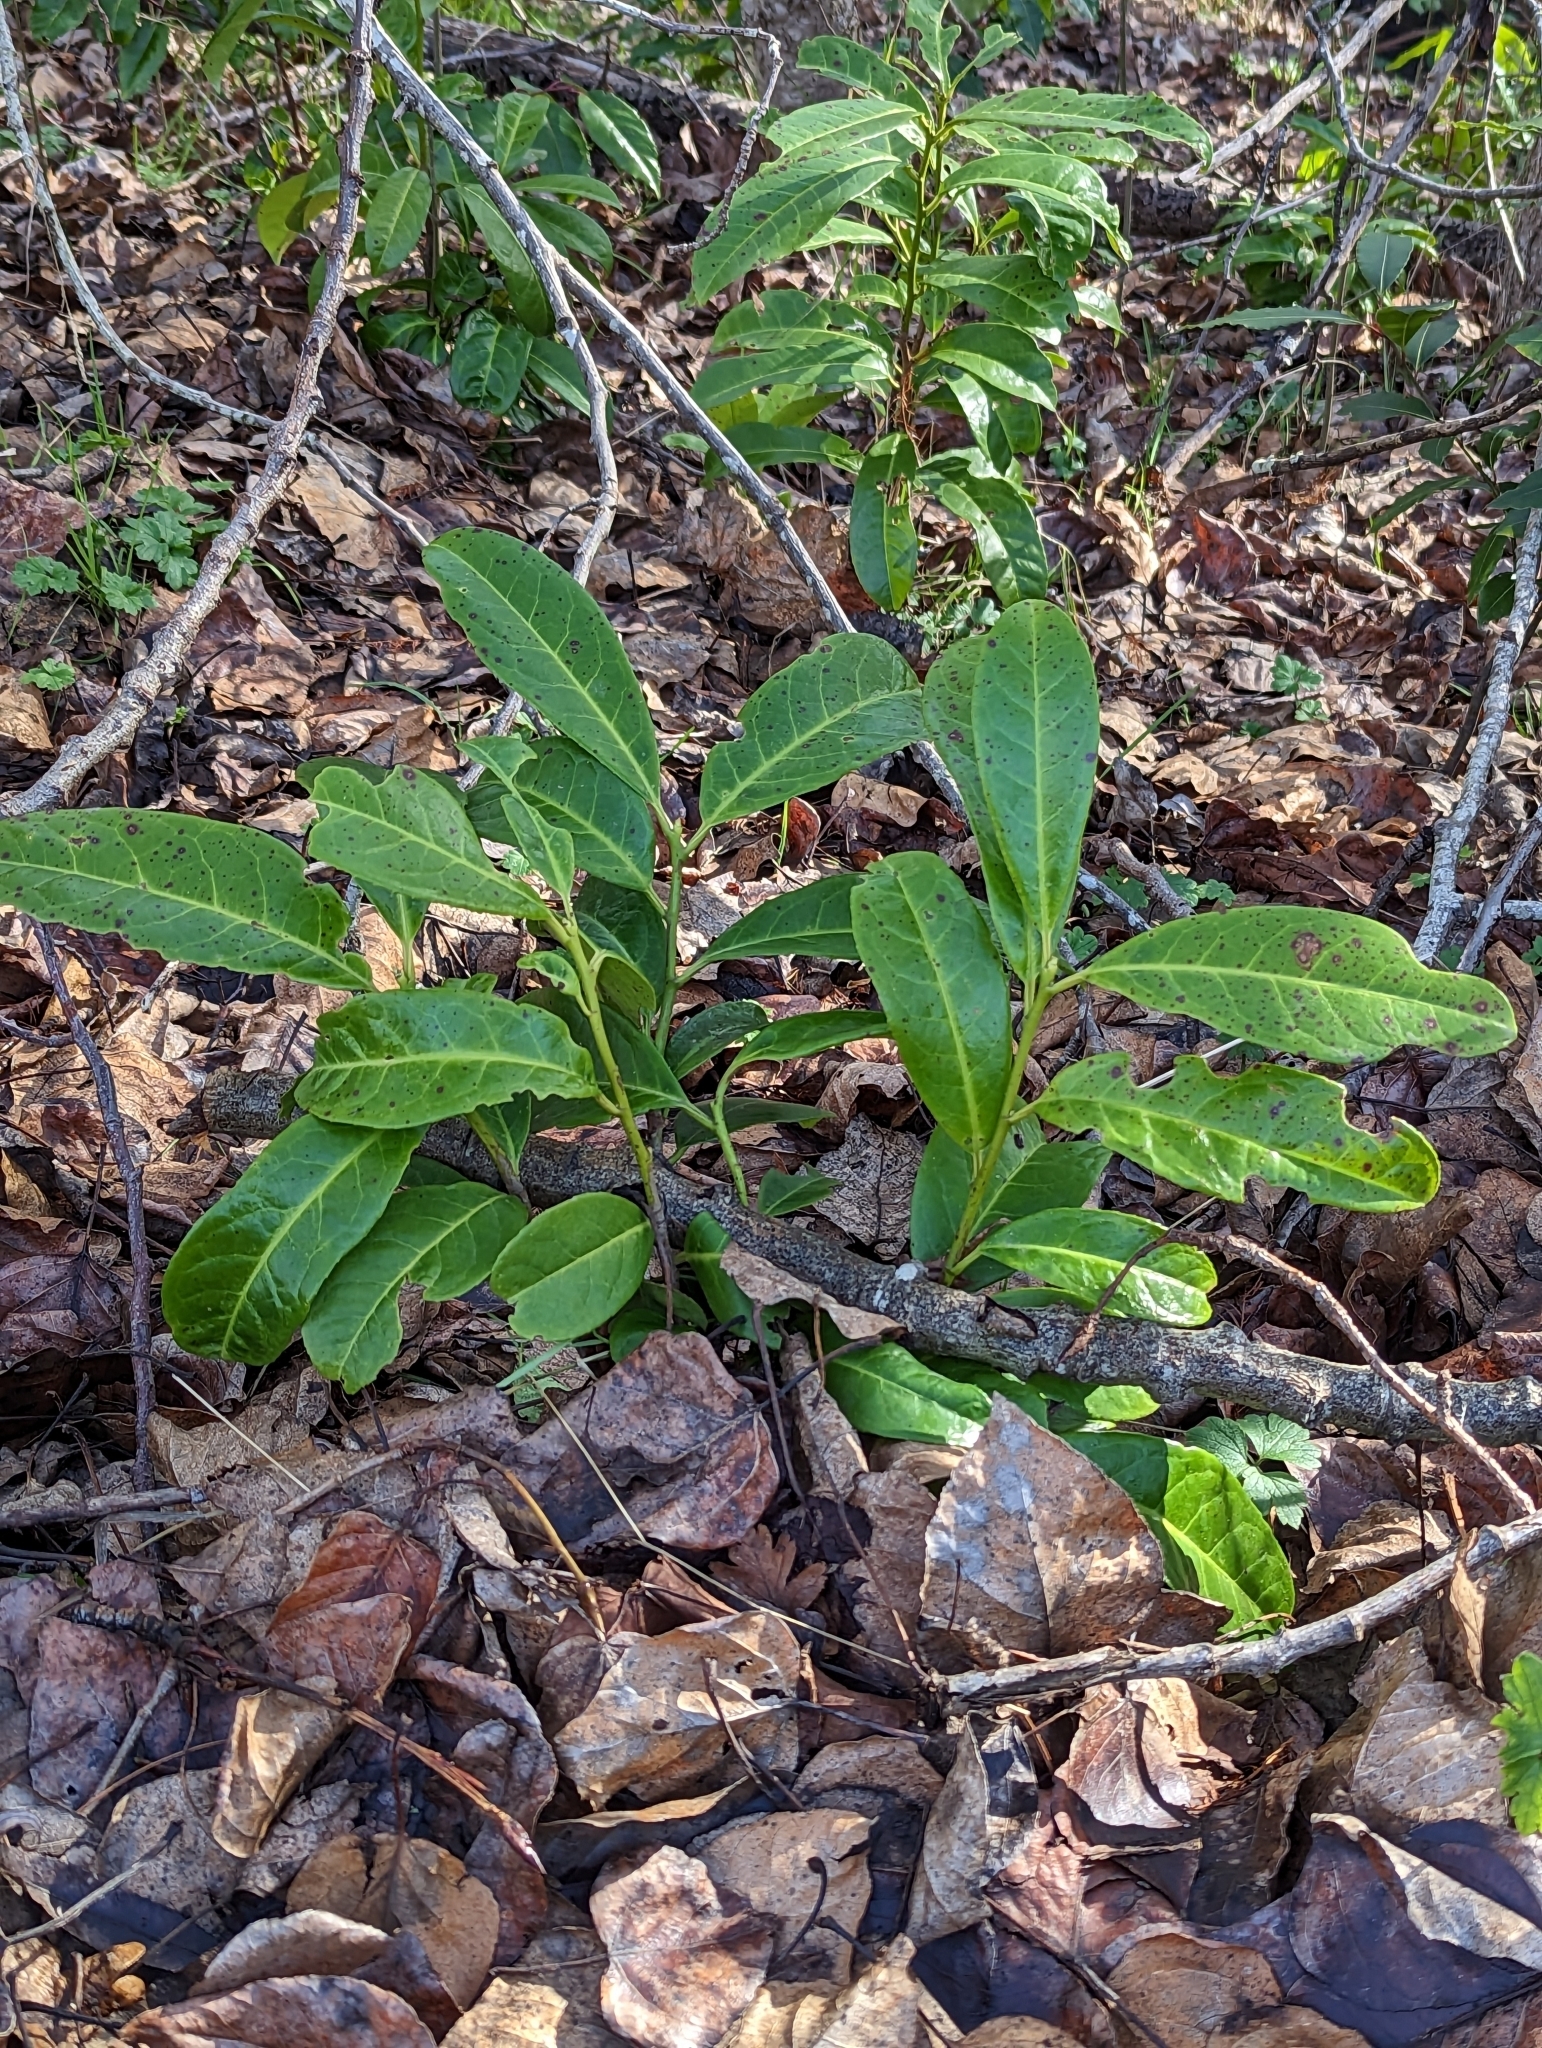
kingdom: Plantae
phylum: Tracheophyta
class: Magnoliopsida
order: Rosales
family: Rosaceae
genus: Prunus
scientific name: Prunus laurocerasus
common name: Cherry laurel
